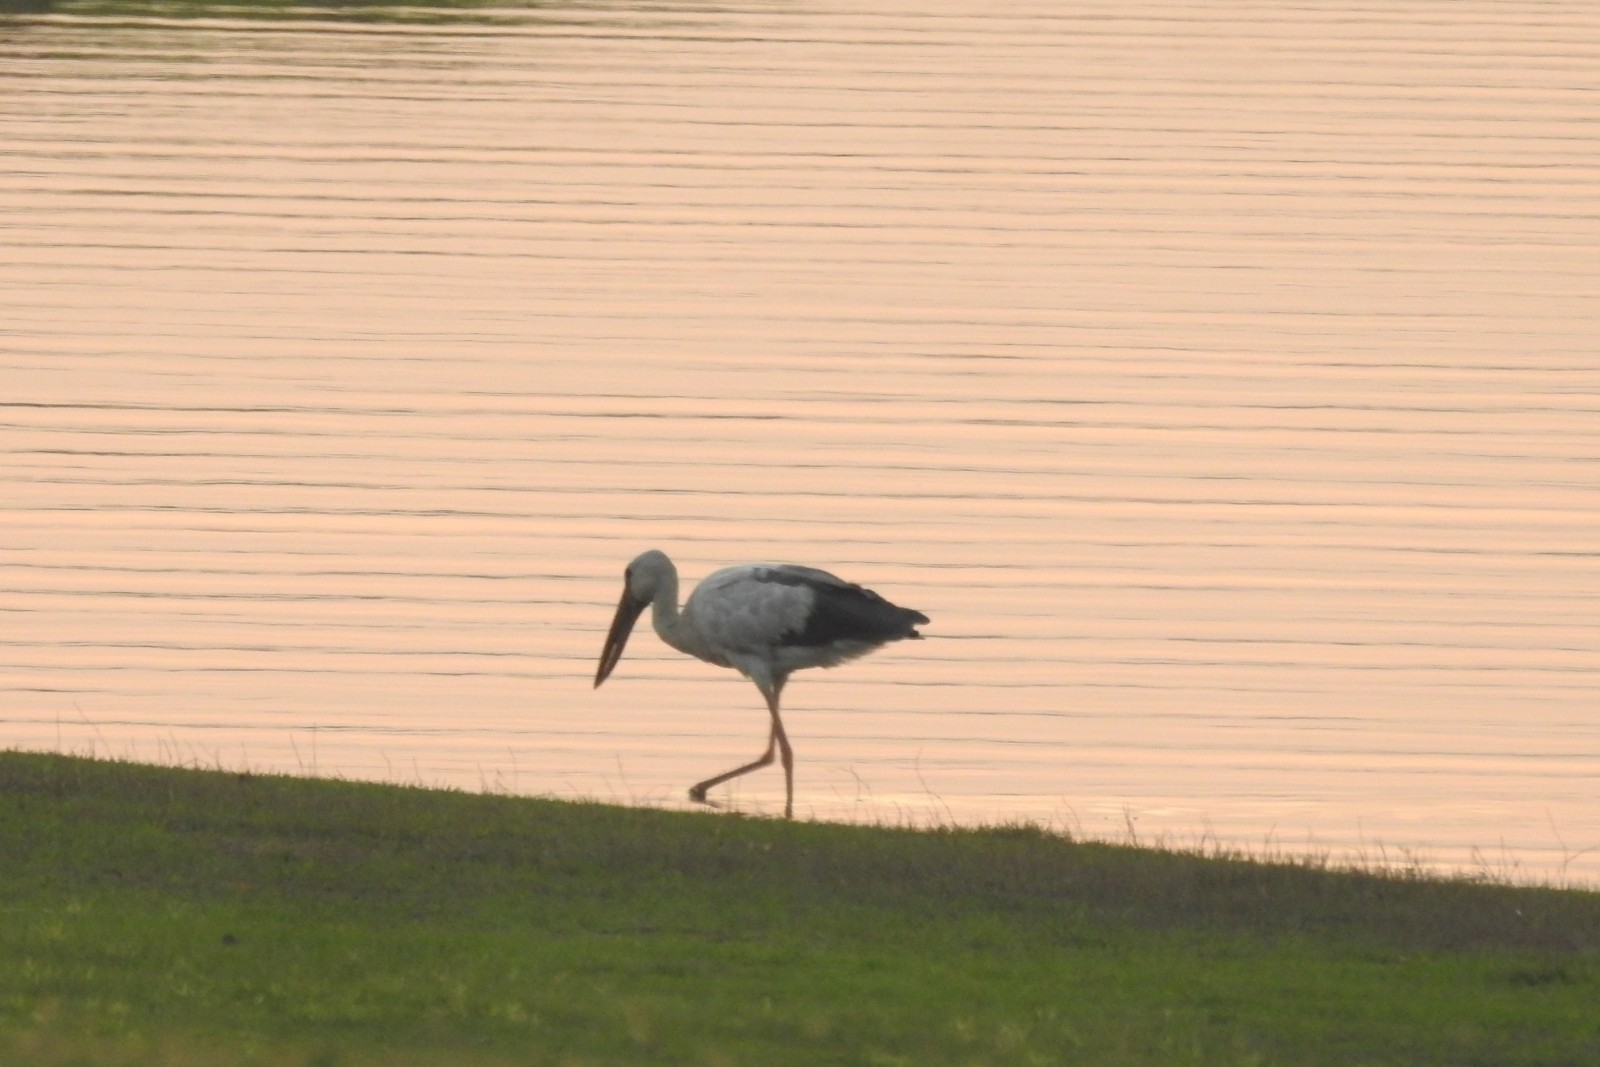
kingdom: Animalia
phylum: Chordata
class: Aves
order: Ciconiiformes
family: Ciconiidae
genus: Anastomus
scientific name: Anastomus oscitans
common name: Asian openbill
